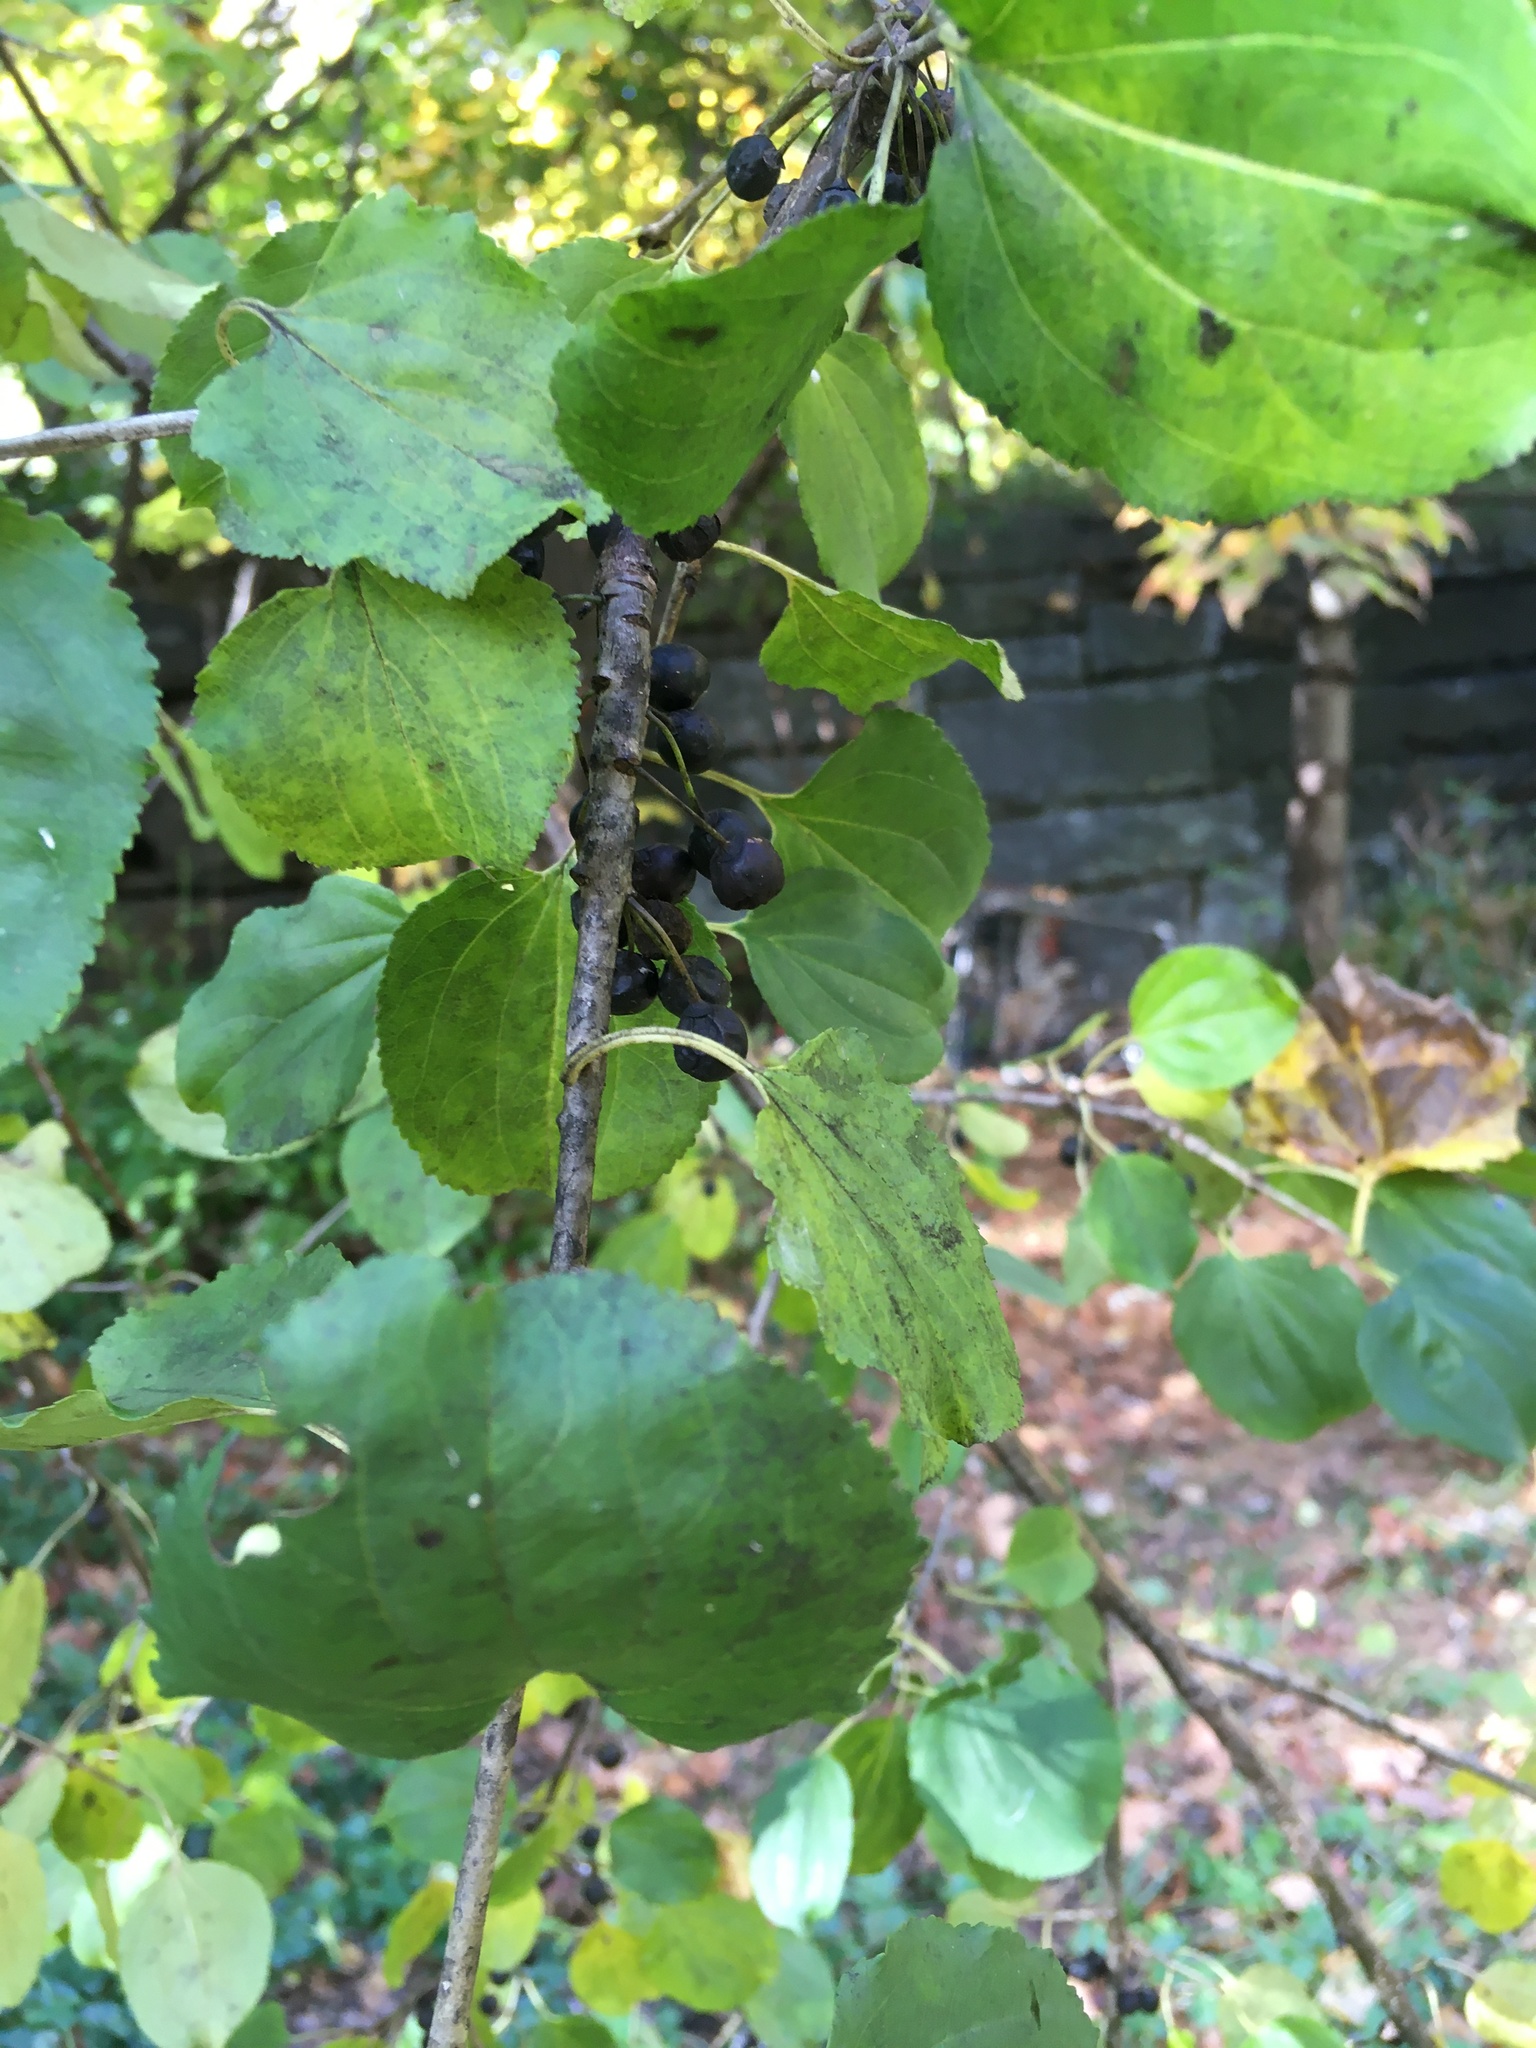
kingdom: Plantae
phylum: Tracheophyta
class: Magnoliopsida
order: Rosales
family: Rhamnaceae
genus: Rhamnus
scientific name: Rhamnus cathartica
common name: Common buckthorn
